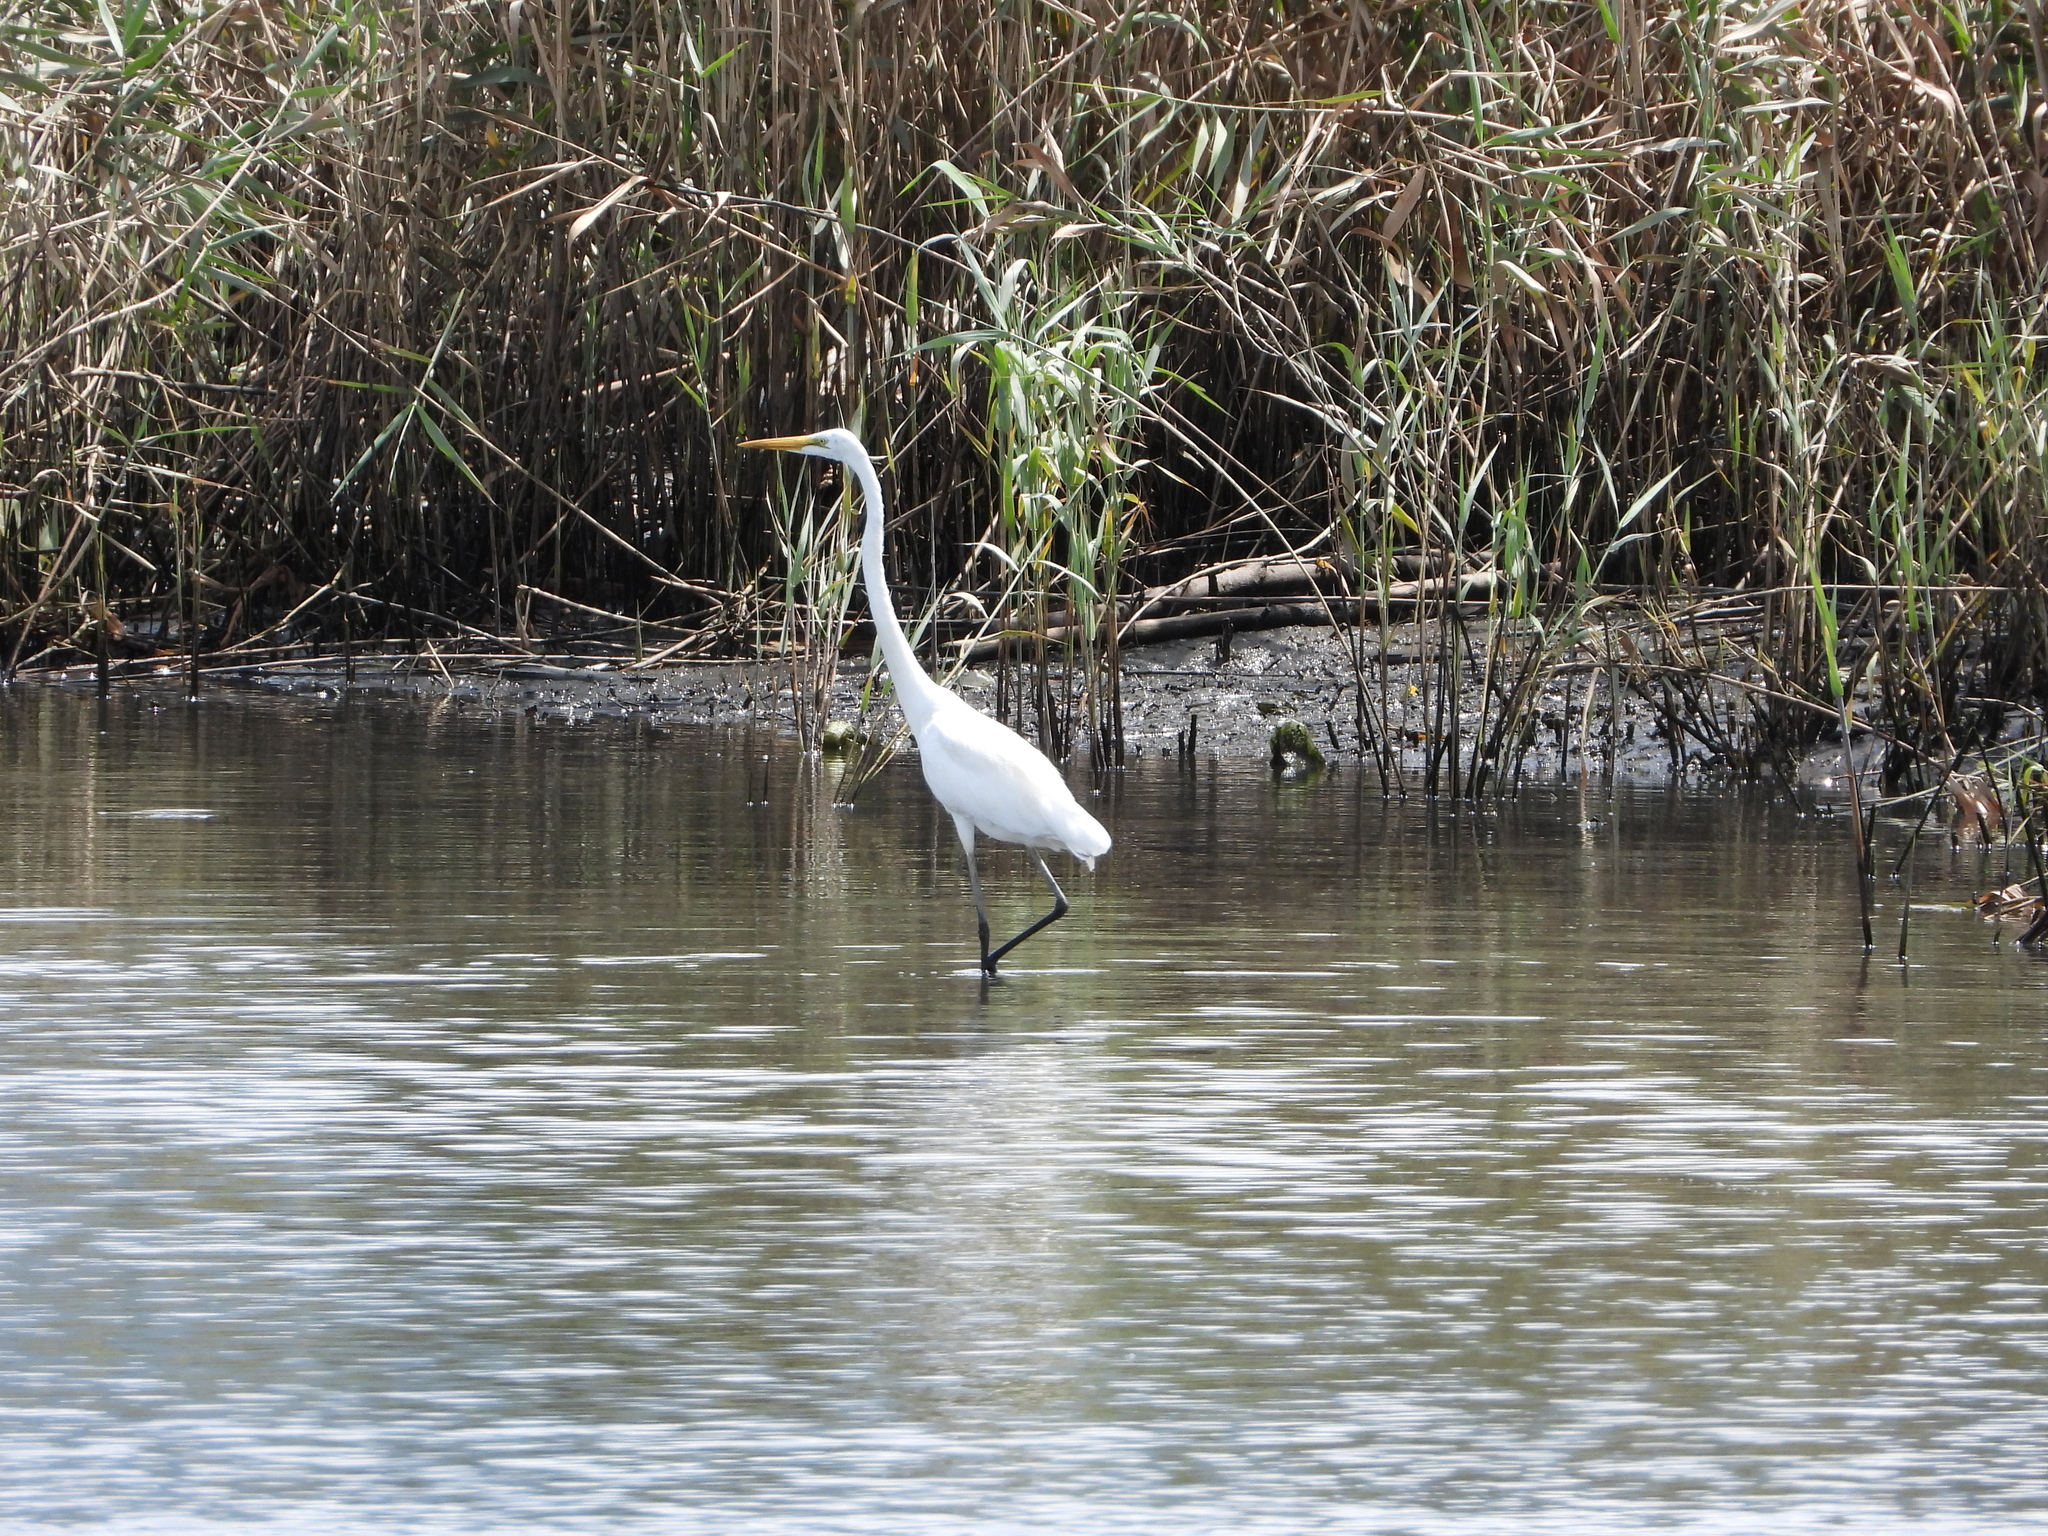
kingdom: Animalia
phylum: Chordata
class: Aves
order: Pelecaniformes
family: Ardeidae
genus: Ardea
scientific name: Ardea alba
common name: Great egret
